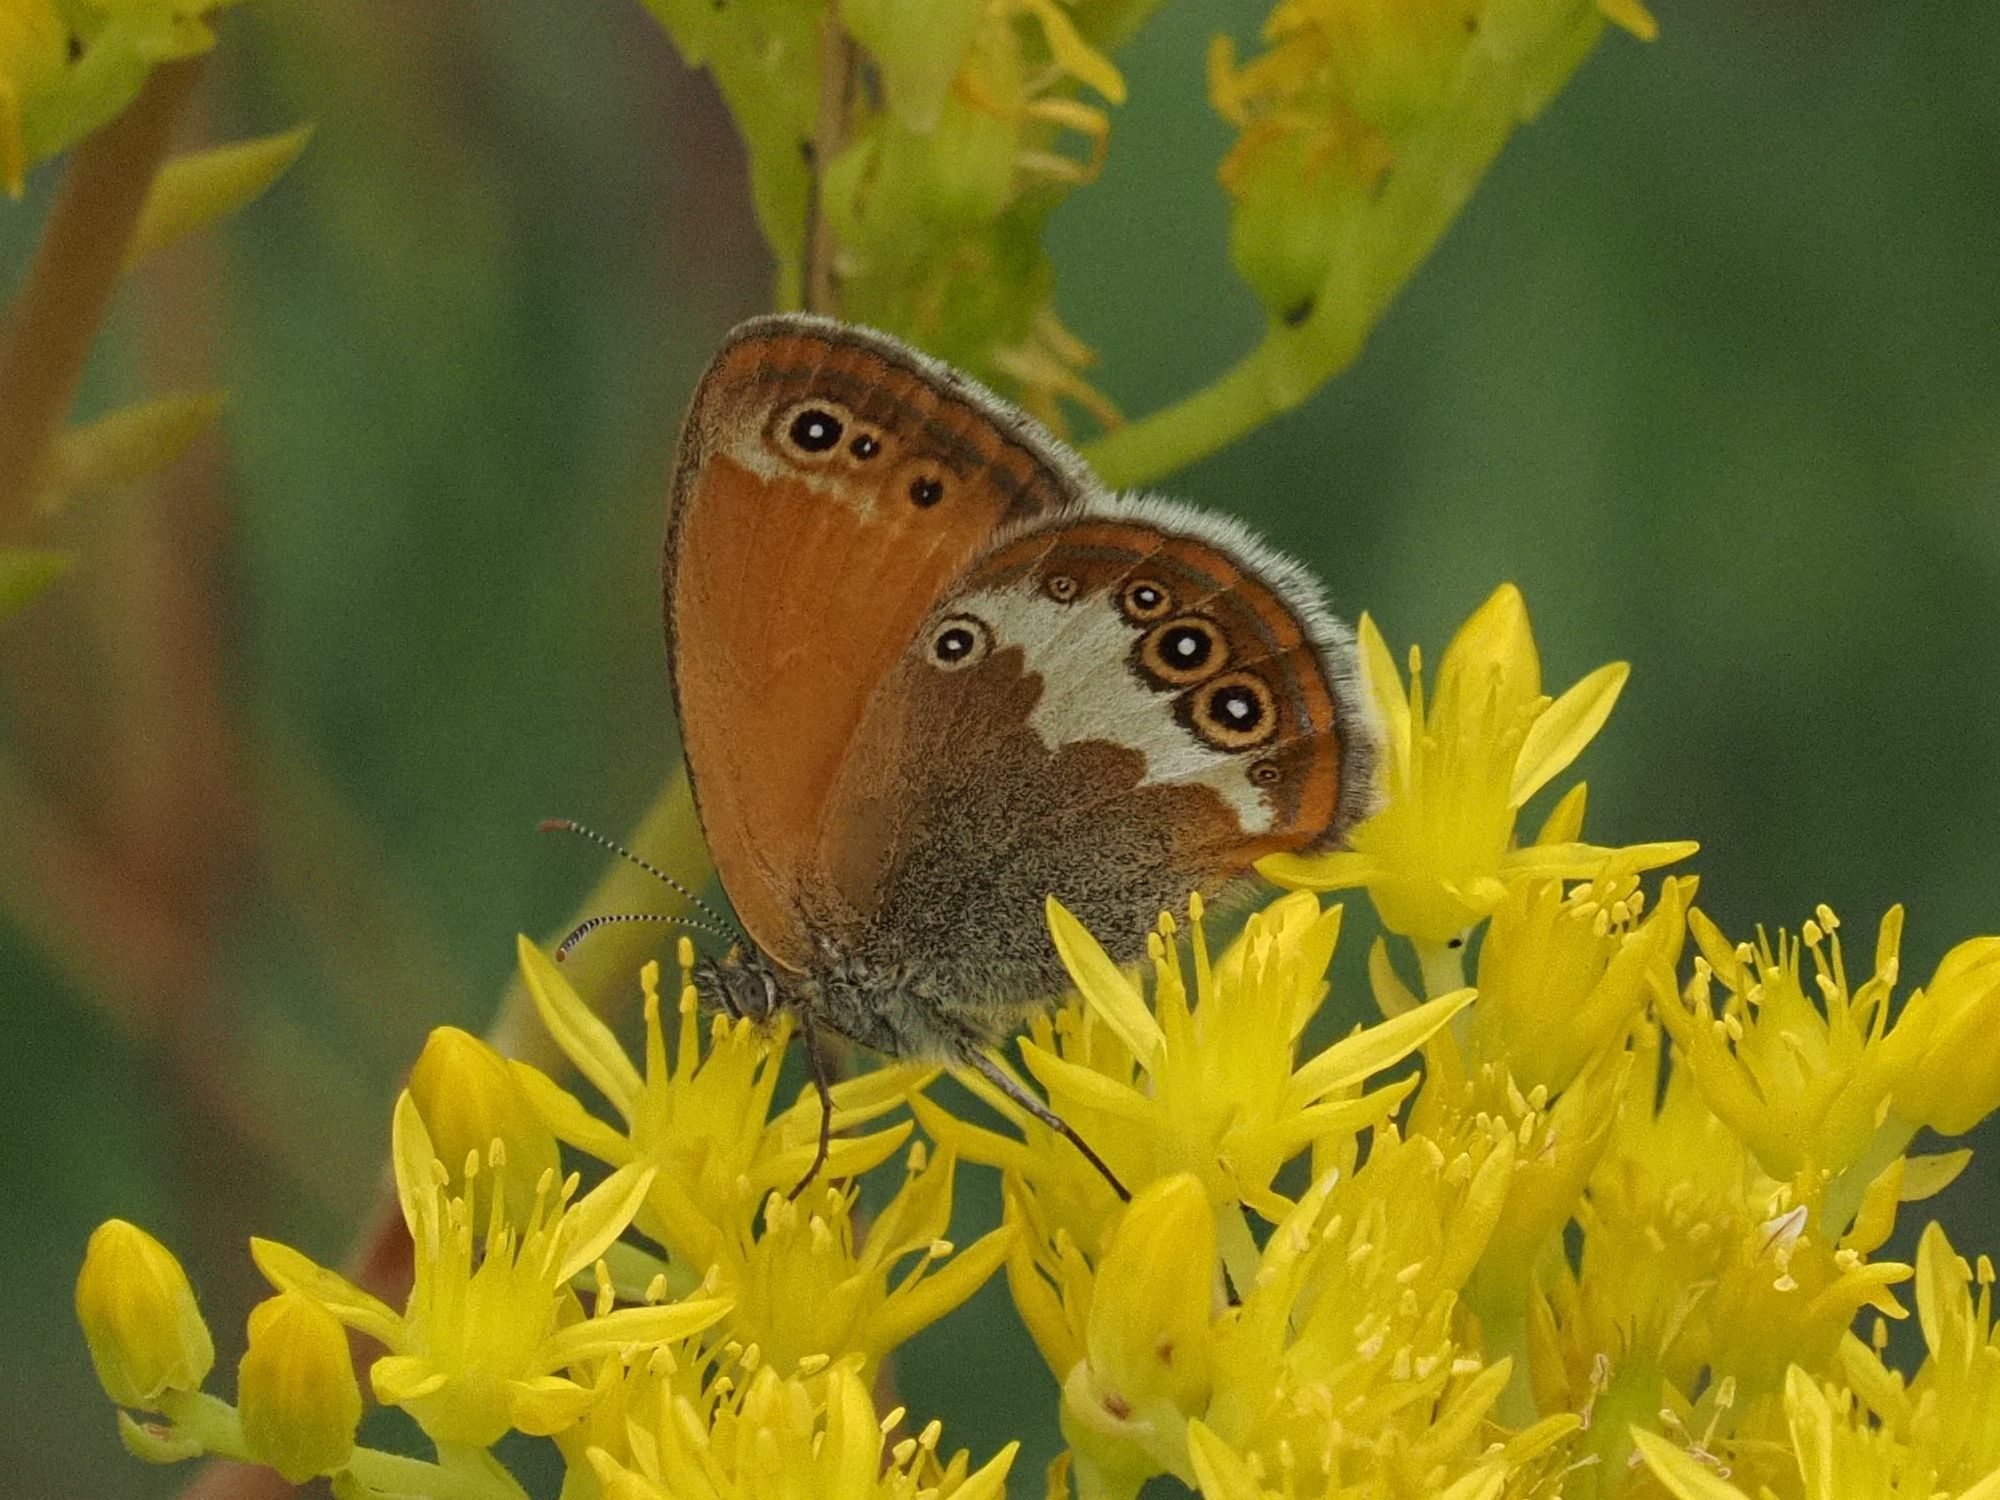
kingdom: Animalia
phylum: Arthropoda
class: Insecta
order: Lepidoptera
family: Nymphalidae
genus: Coenonympha
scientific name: Coenonympha arcania
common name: Pearly heath
